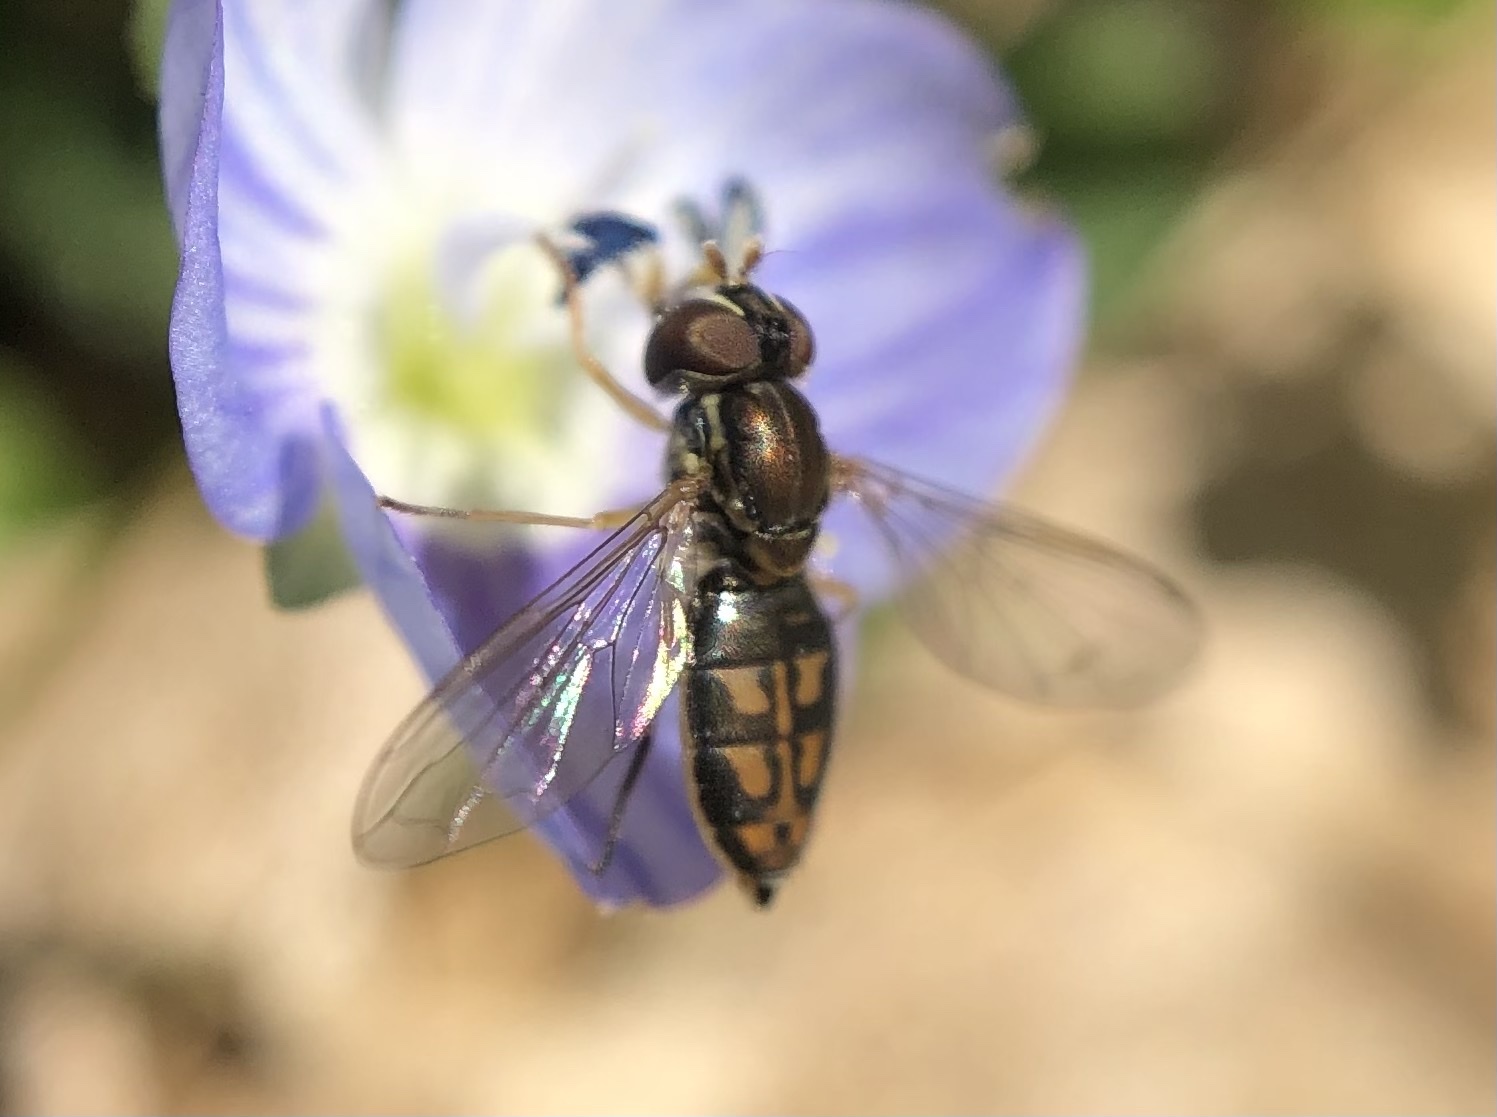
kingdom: Animalia
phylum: Arthropoda
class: Insecta
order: Diptera
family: Syrphidae
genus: Toxomerus
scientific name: Toxomerus marginatus
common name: Syrphid fly
